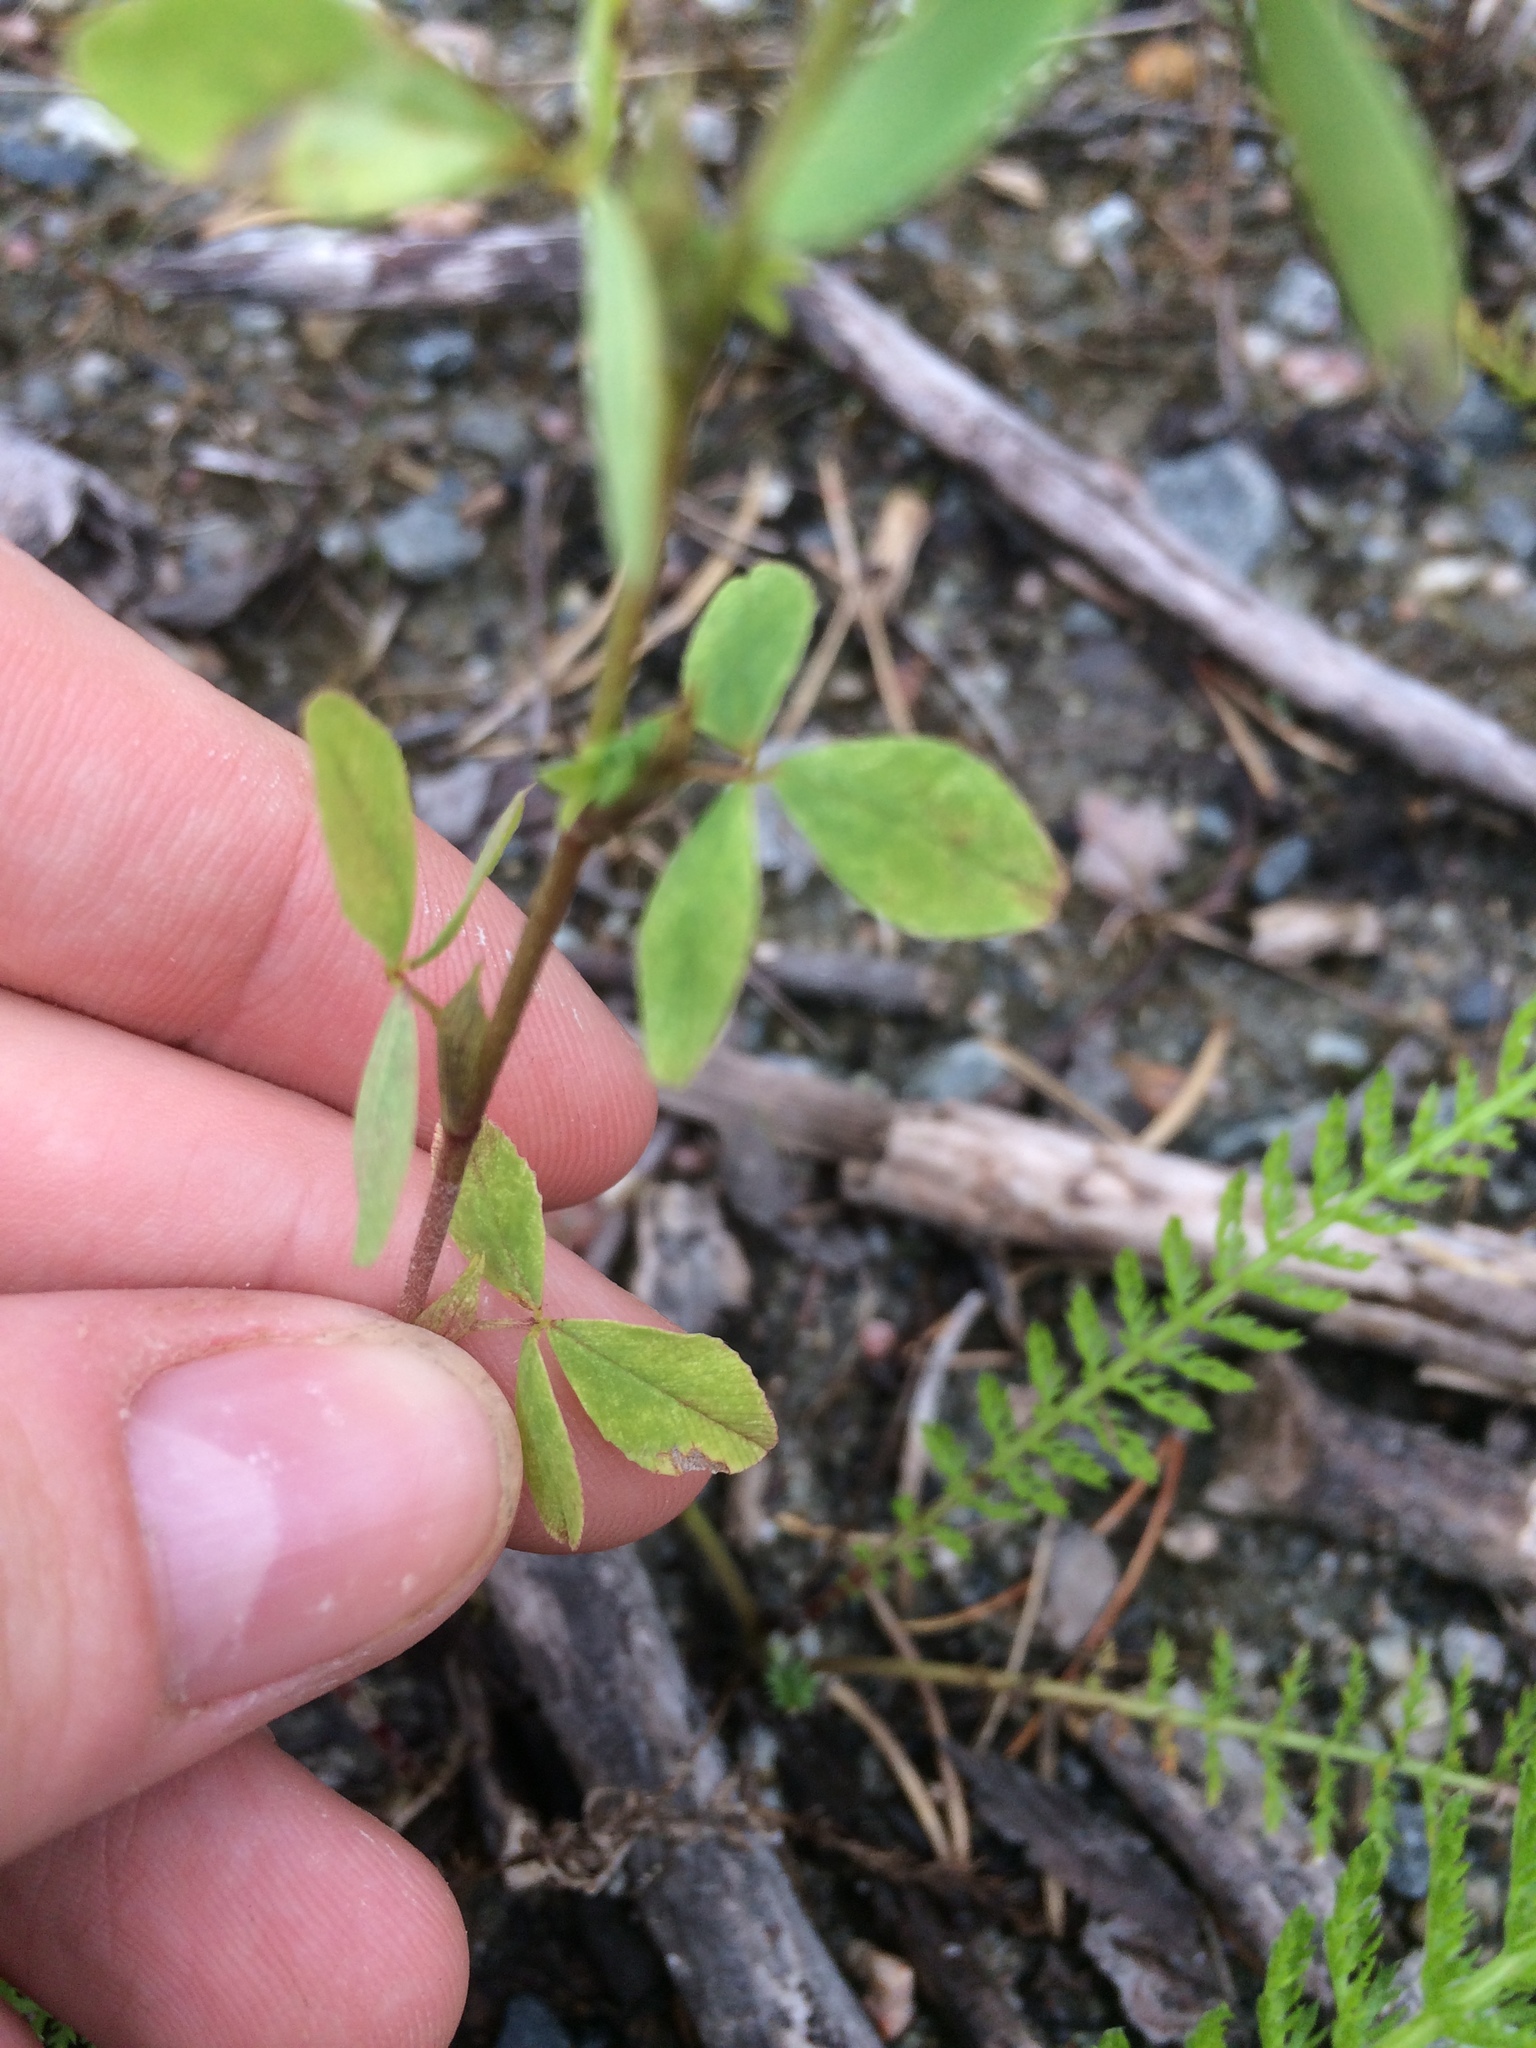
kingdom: Plantae
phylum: Tracheophyta
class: Magnoliopsida
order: Fabales
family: Fabaceae
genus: Trifolium
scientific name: Trifolium aureum
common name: Golden clover
